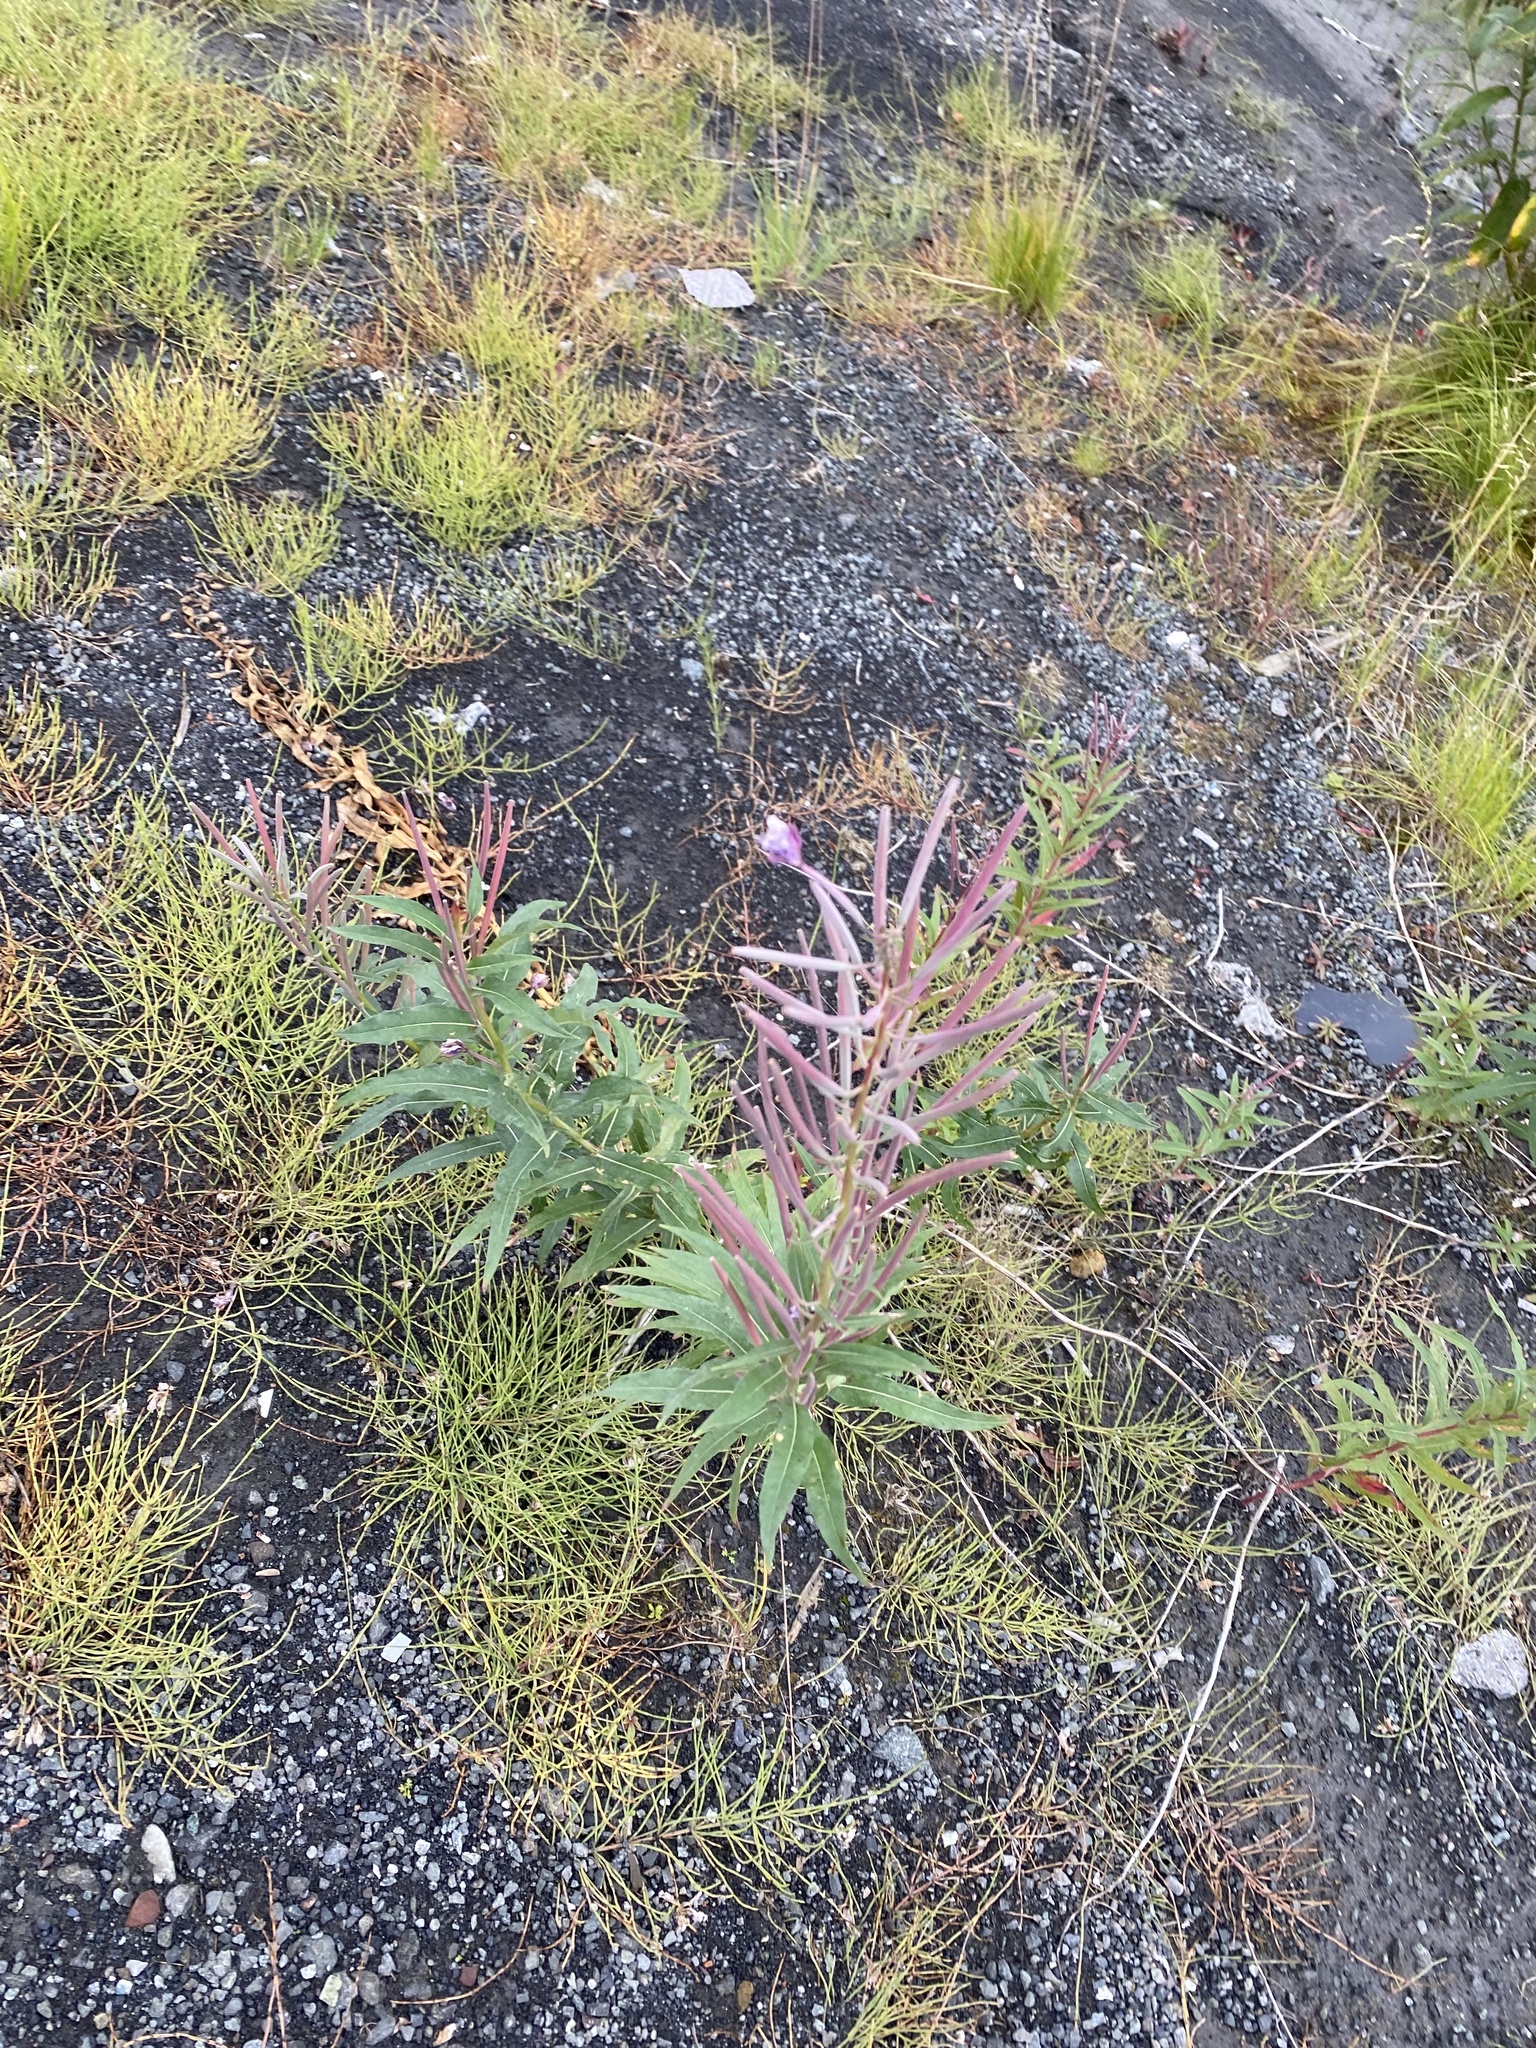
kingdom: Plantae
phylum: Tracheophyta
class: Magnoliopsida
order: Myrtales
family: Onagraceae
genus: Chamaenerion
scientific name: Chamaenerion angustifolium
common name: Fireweed
